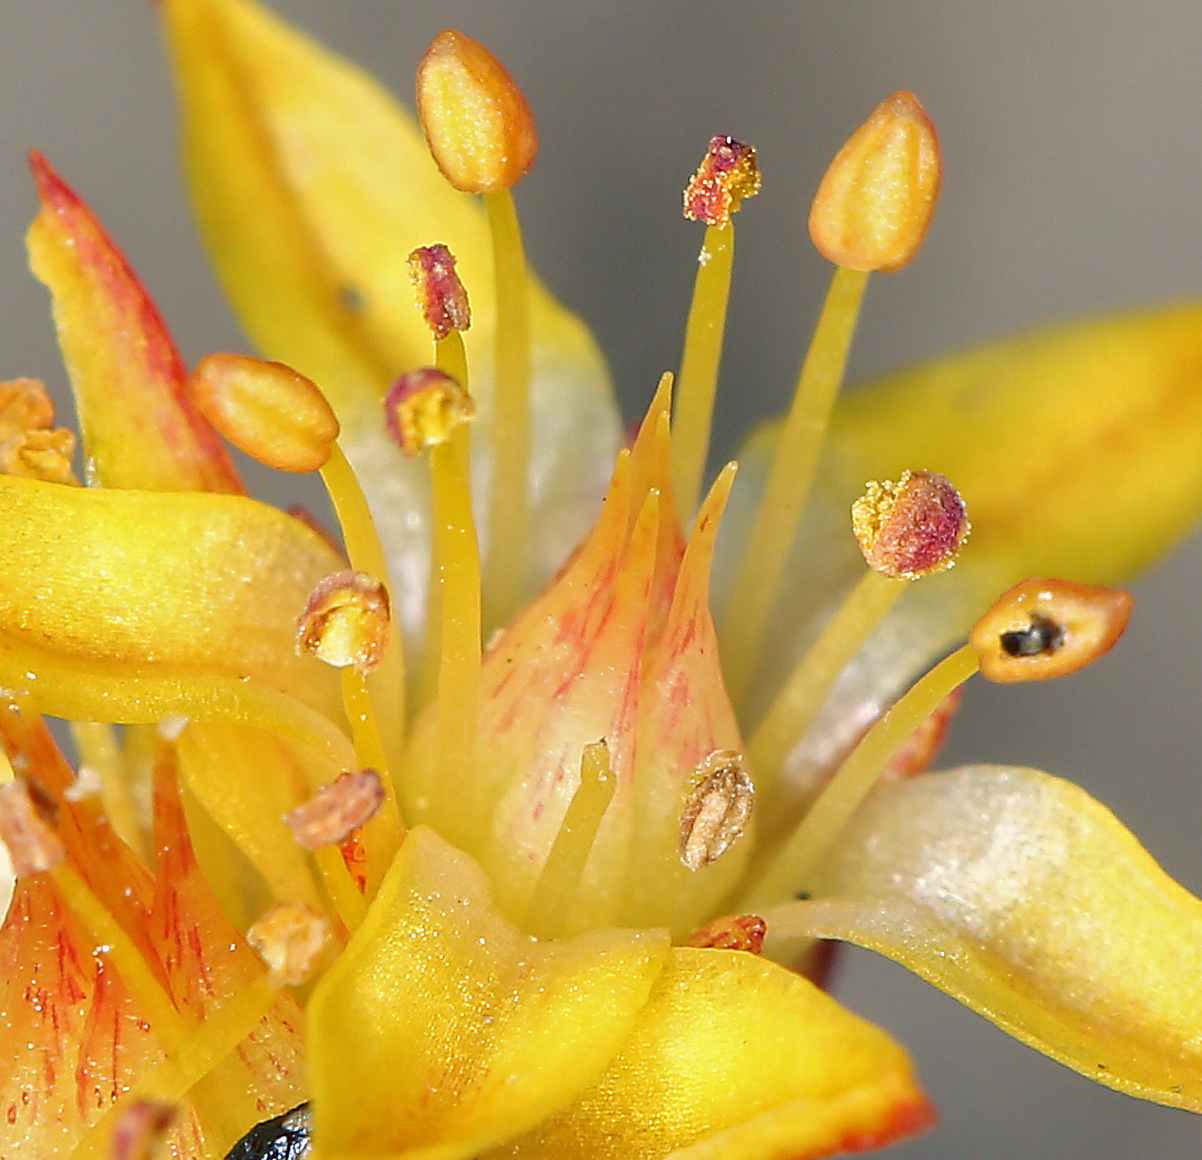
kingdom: Plantae
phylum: Tracheophyta
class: Magnoliopsida
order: Saxifragales
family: Crassulaceae
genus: Sedum
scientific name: Sedum lanceolatum
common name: Common stonecrop
